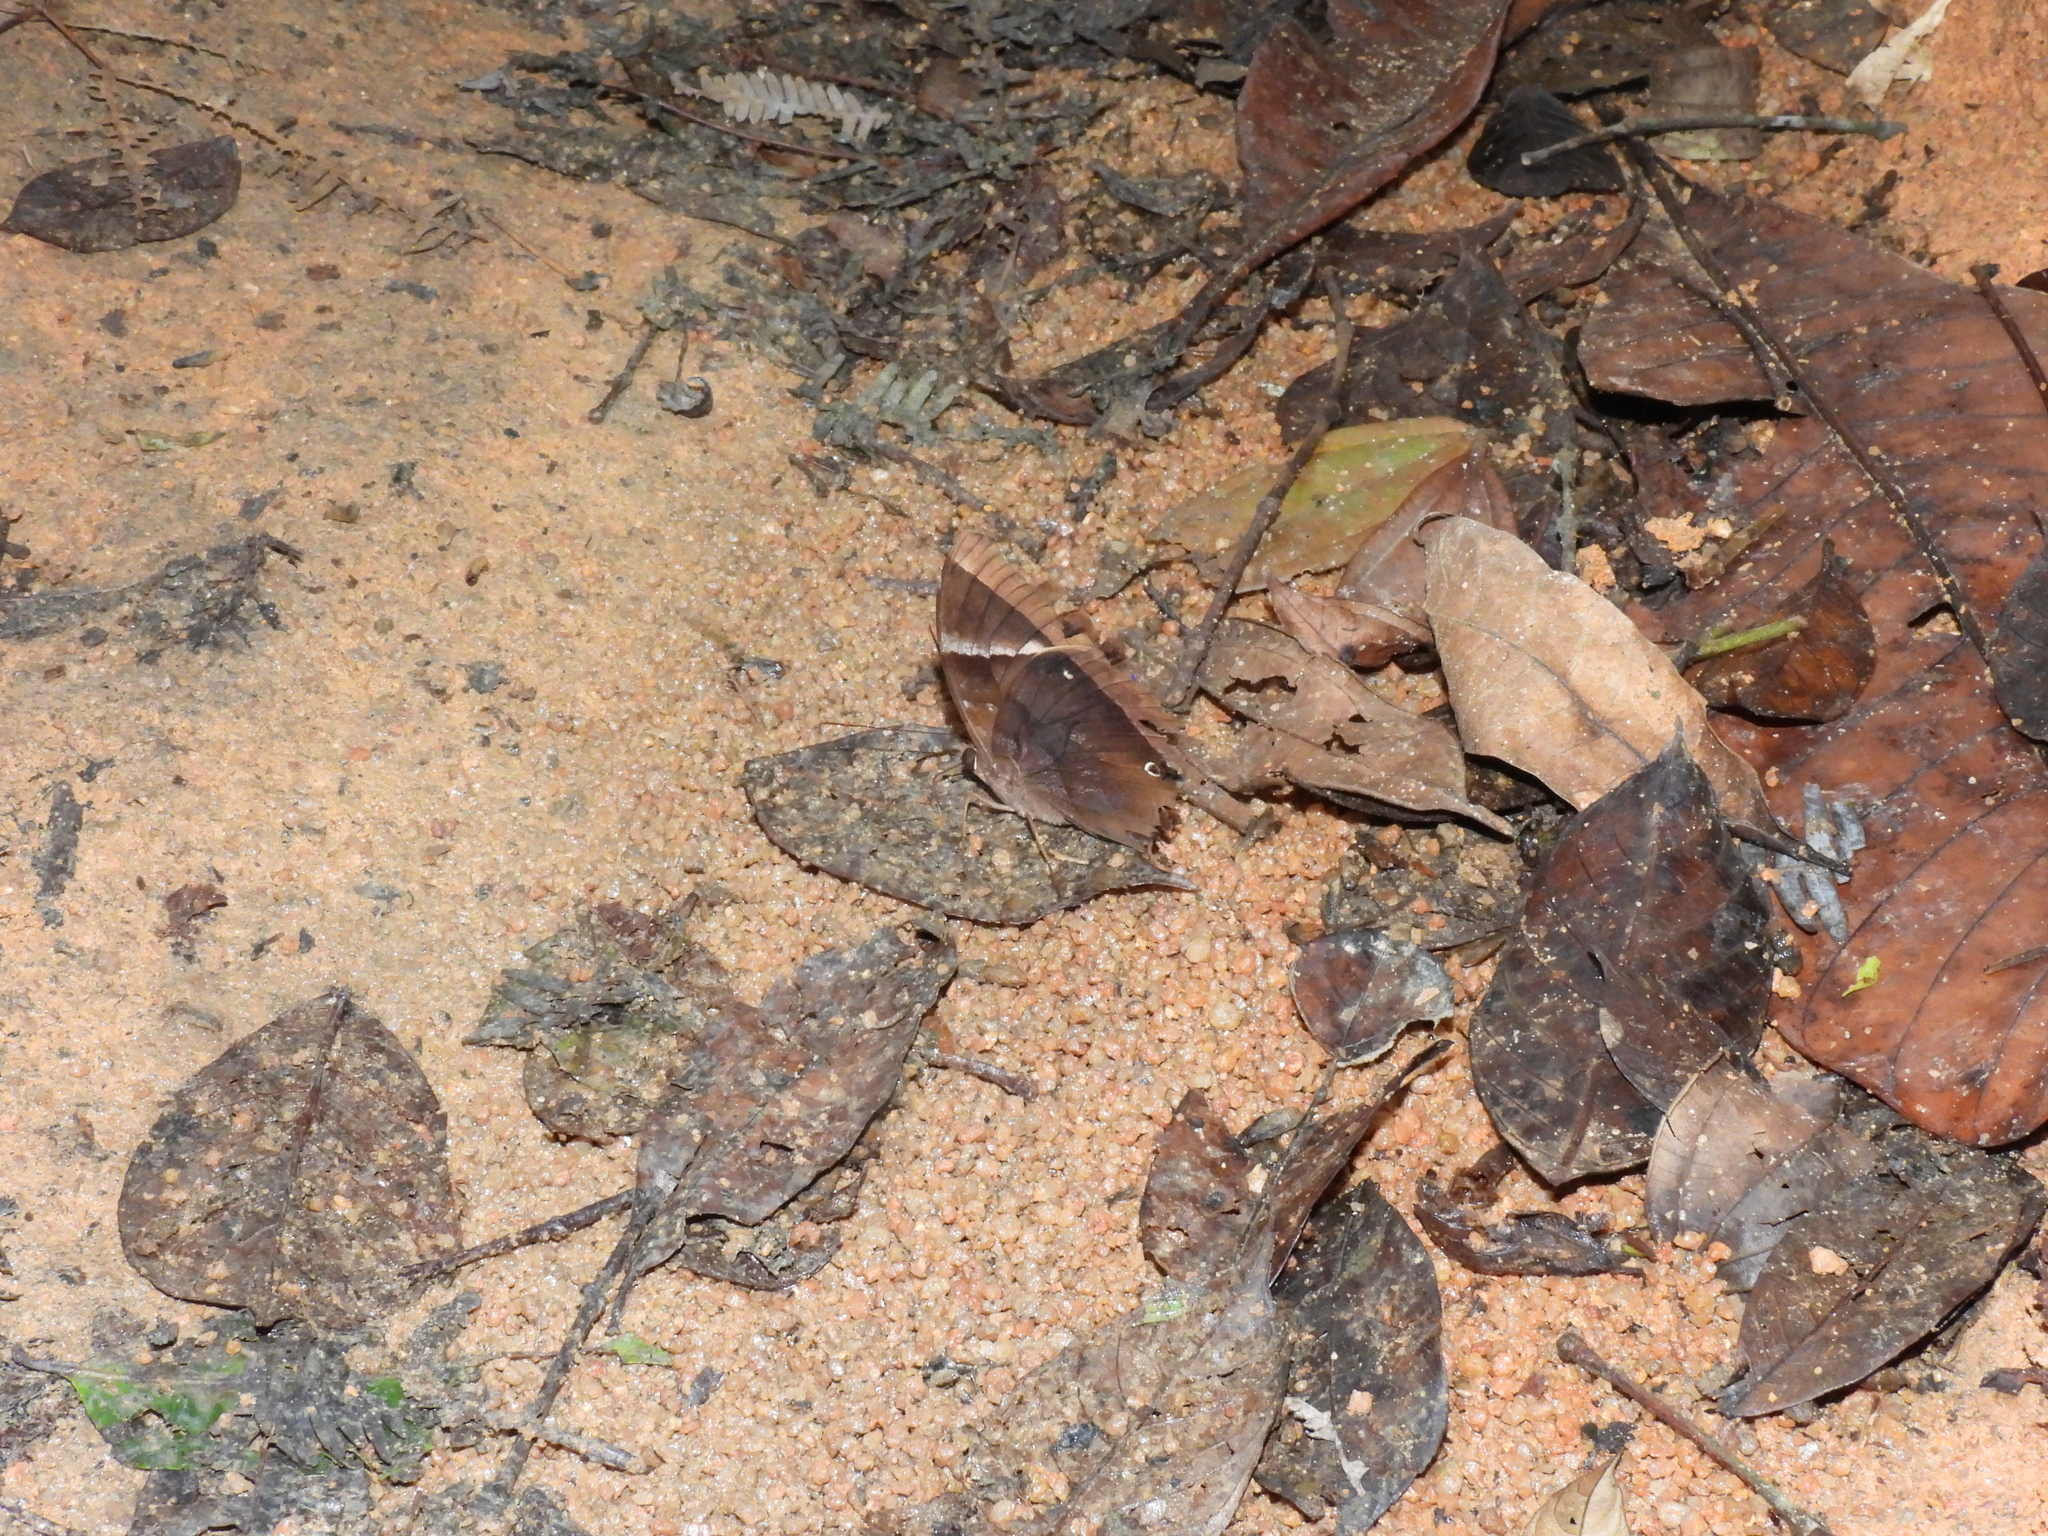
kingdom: Animalia
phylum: Arthropoda
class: Insecta
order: Lepidoptera
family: Nymphalidae
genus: Thaumantis
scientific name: Thaumantis klugius
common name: Dark blue jungle glory
